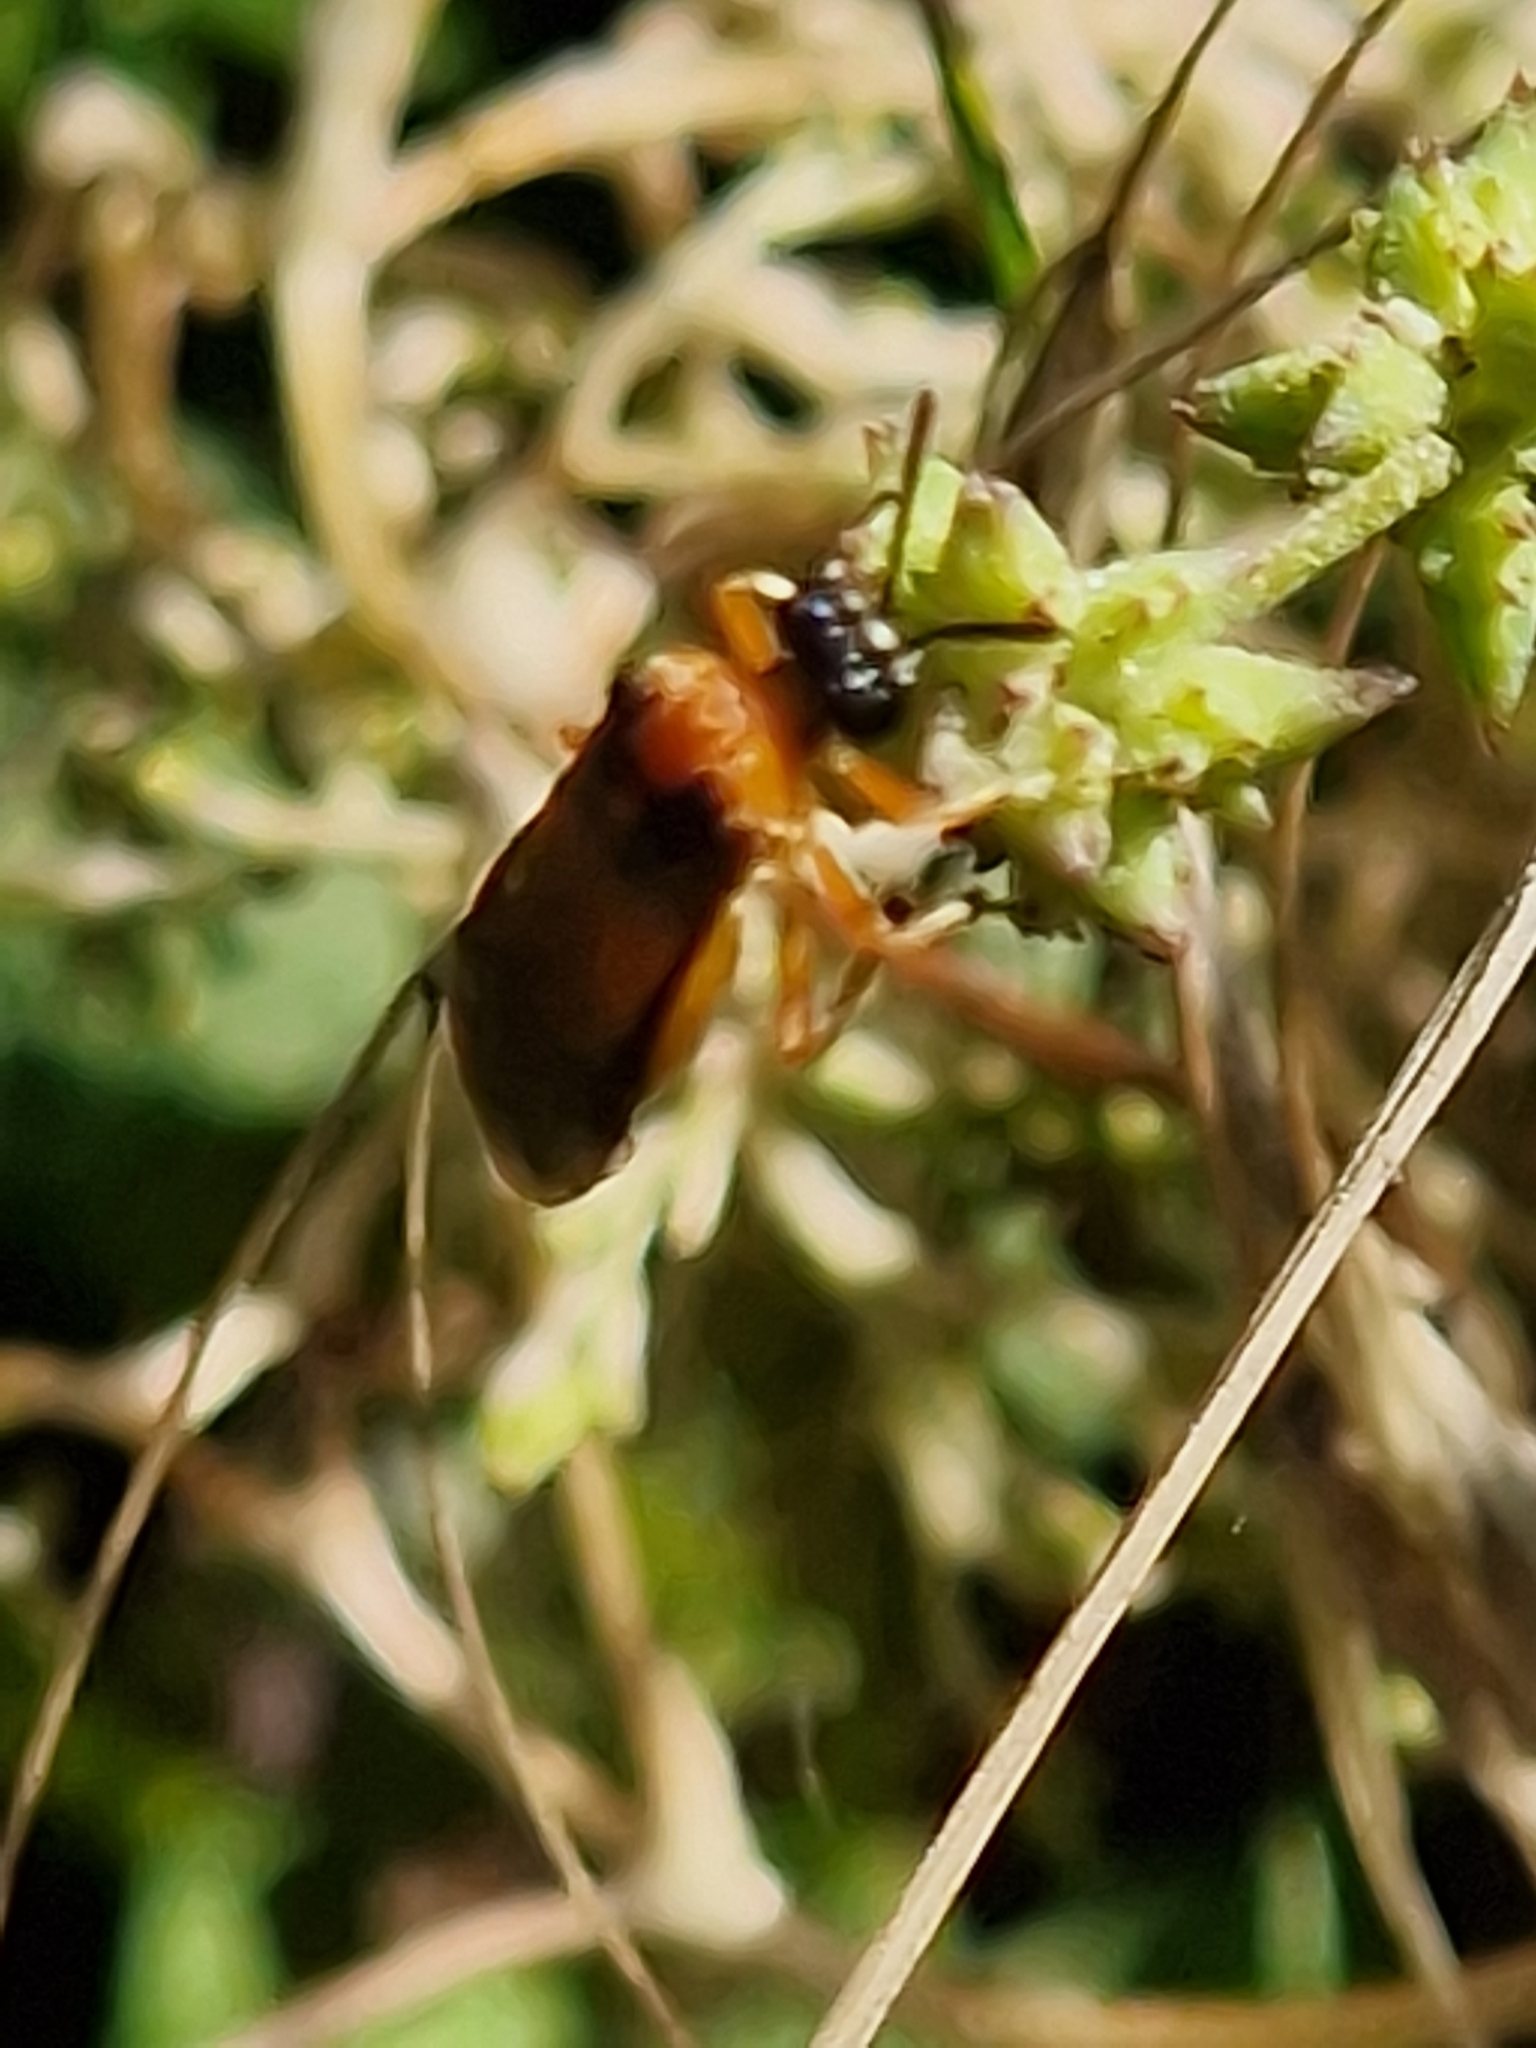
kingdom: Animalia
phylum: Arthropoda
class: Insecta
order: Hymenoptera
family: Tenthredinidae
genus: Athalia
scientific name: Athalia rosae
